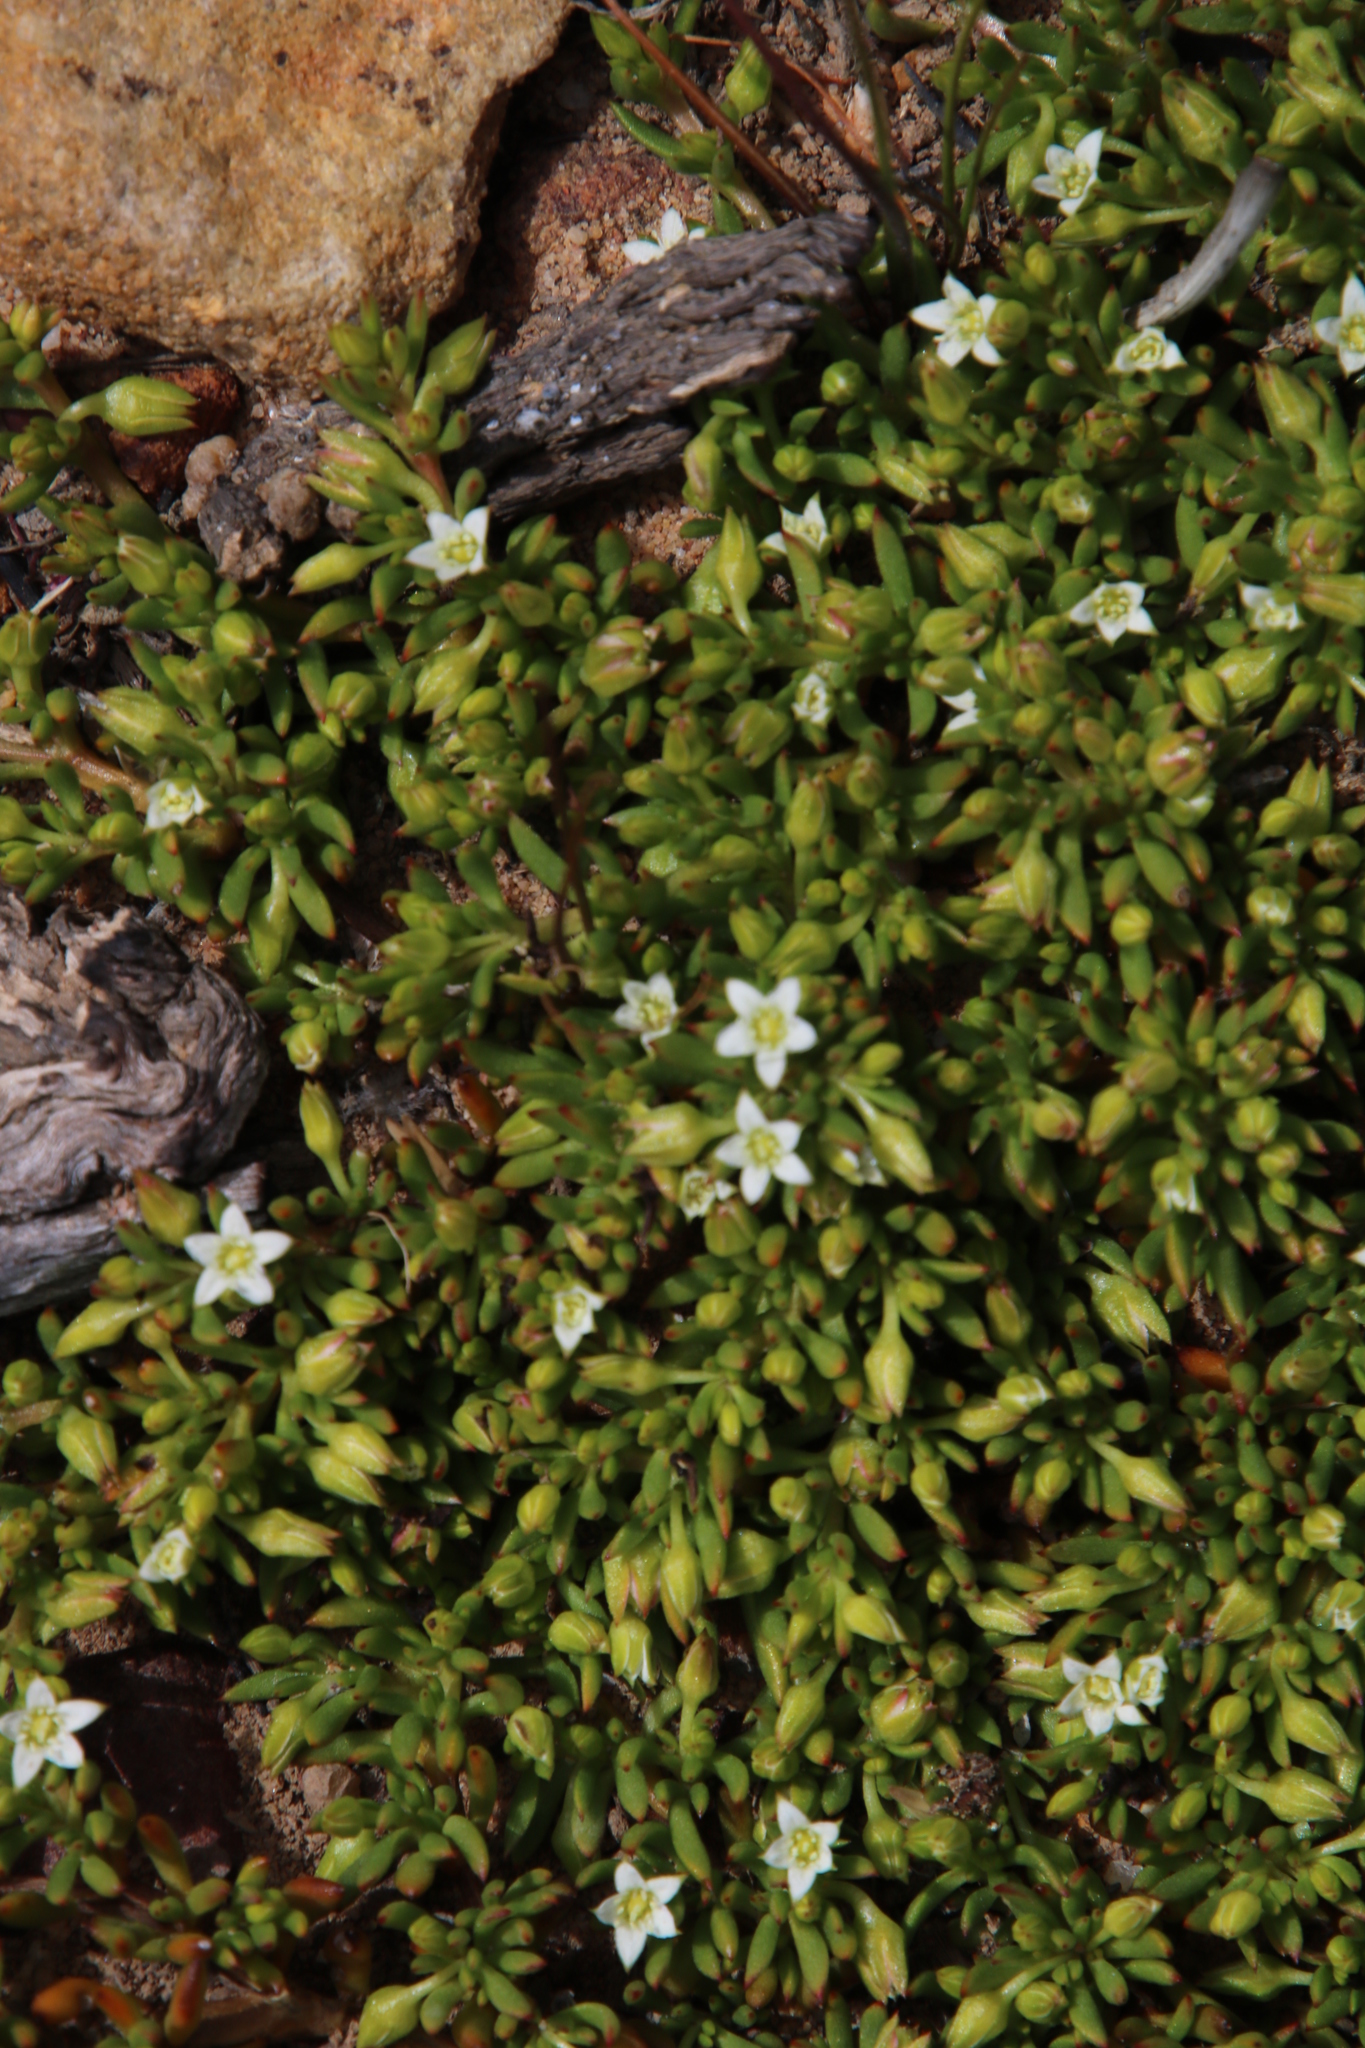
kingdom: Plantae
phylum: Tracheophyta
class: Magnoliopsida
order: Caryophyllales
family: Aizoaceae
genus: Acrosanthes
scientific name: Acrosanthes humifusa
